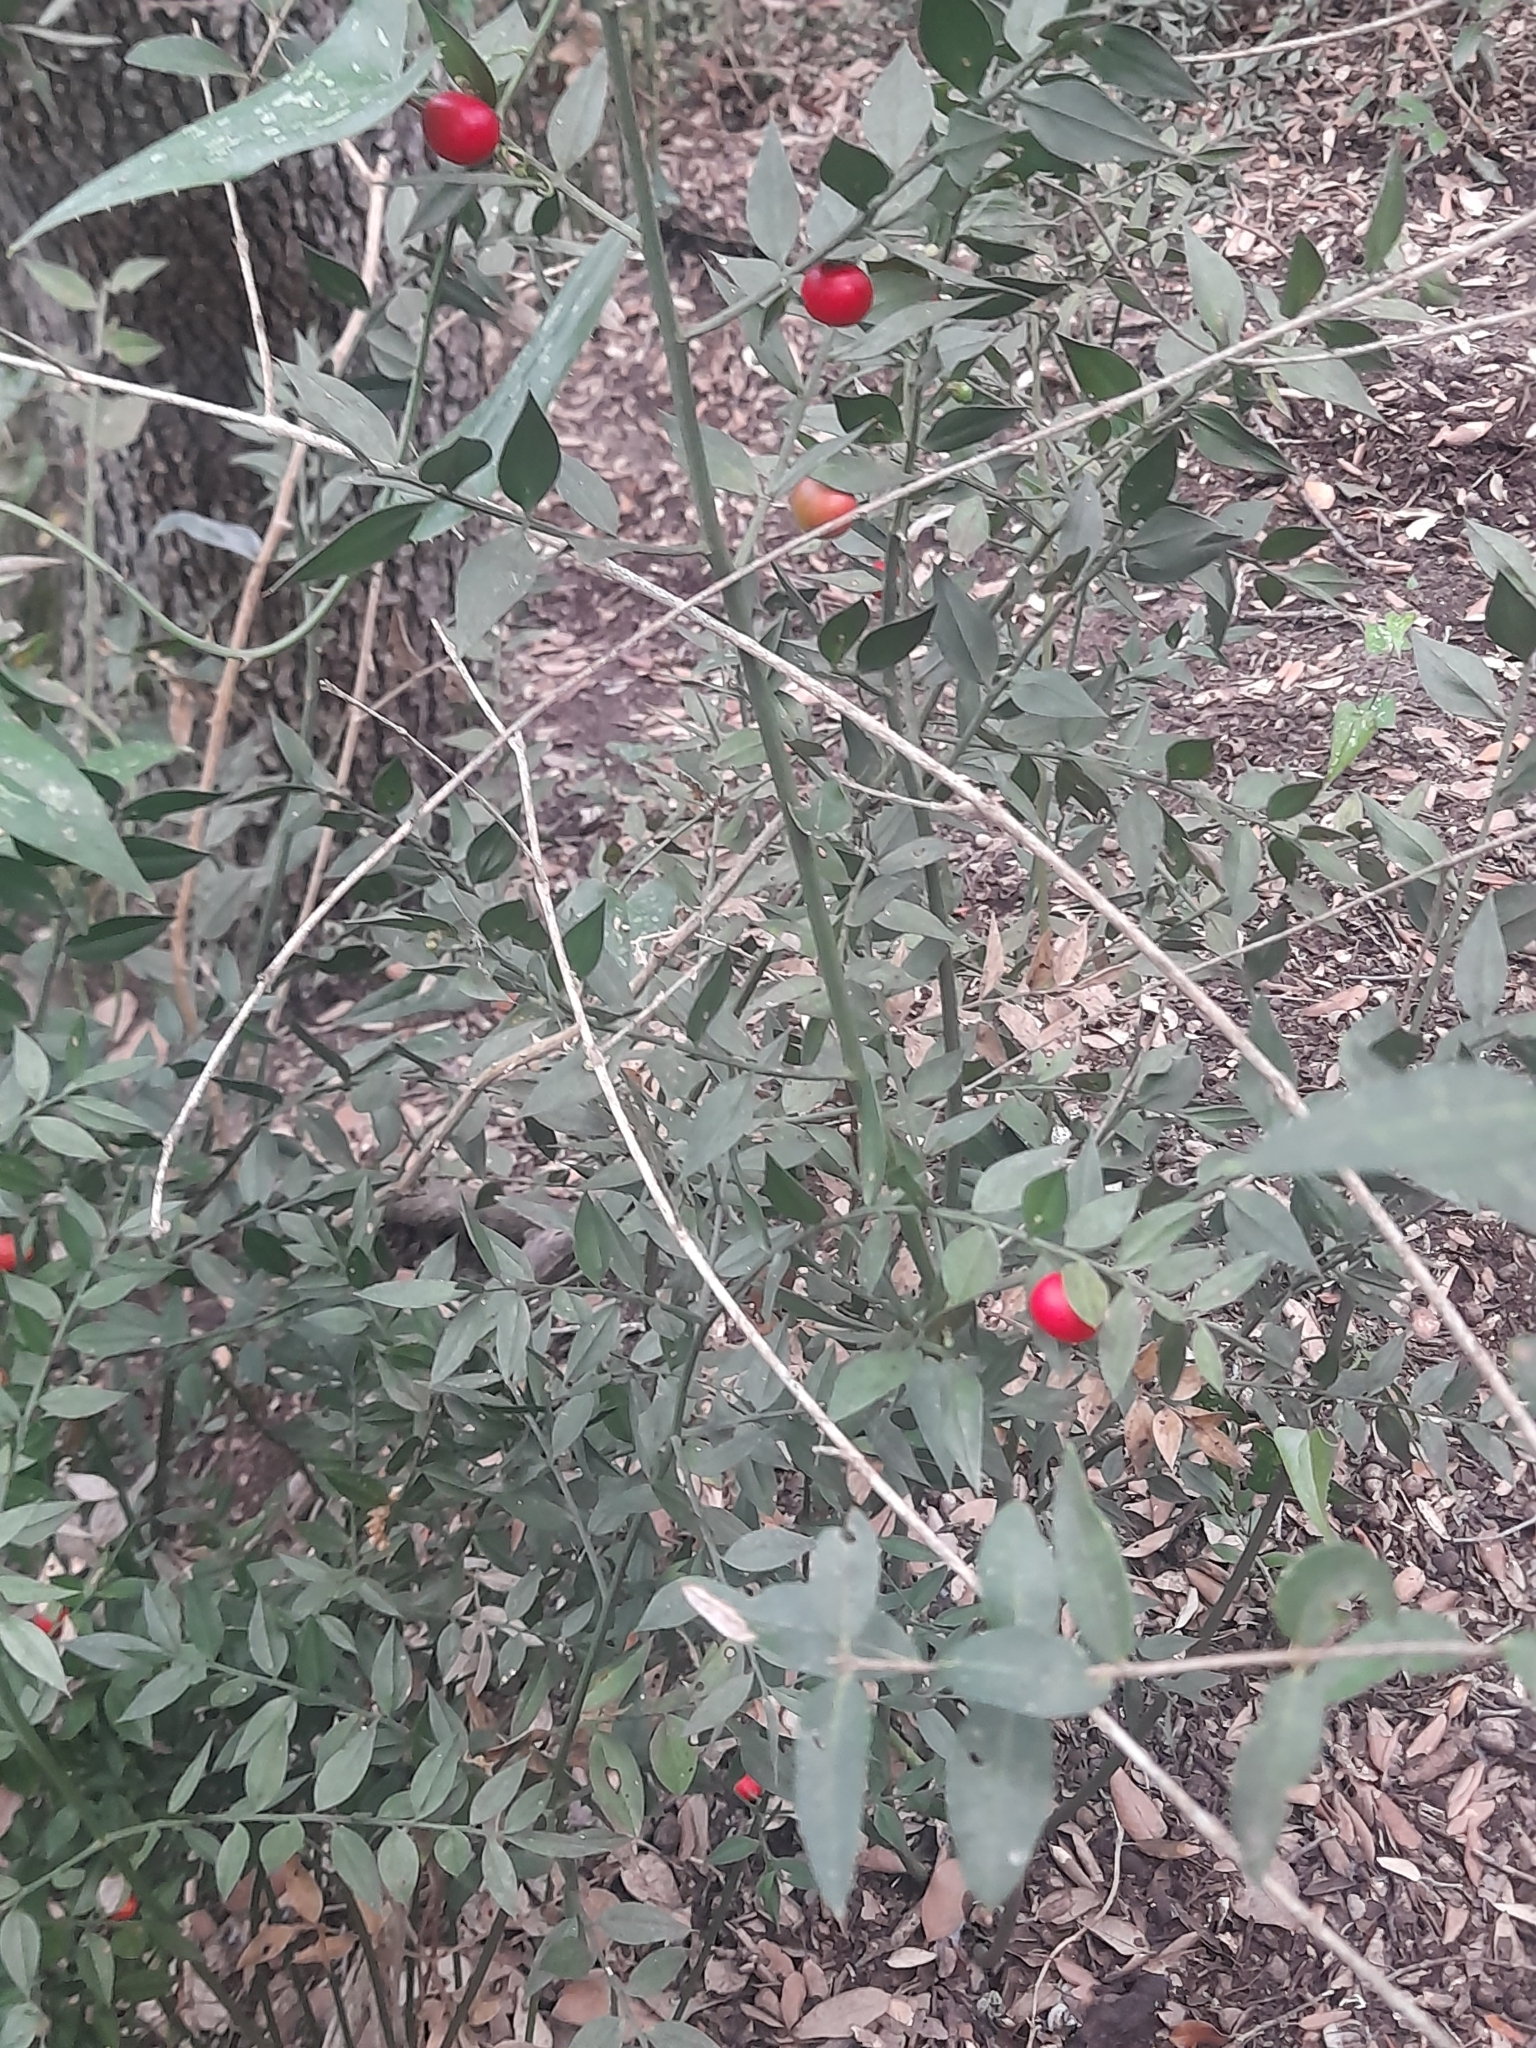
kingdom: Plantae
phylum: Tracheophyta
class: Liliopsida
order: Asparagales
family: Asparagaceae
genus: Ruscus
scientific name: Ruscus aculeatus
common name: Butcher's-broom
